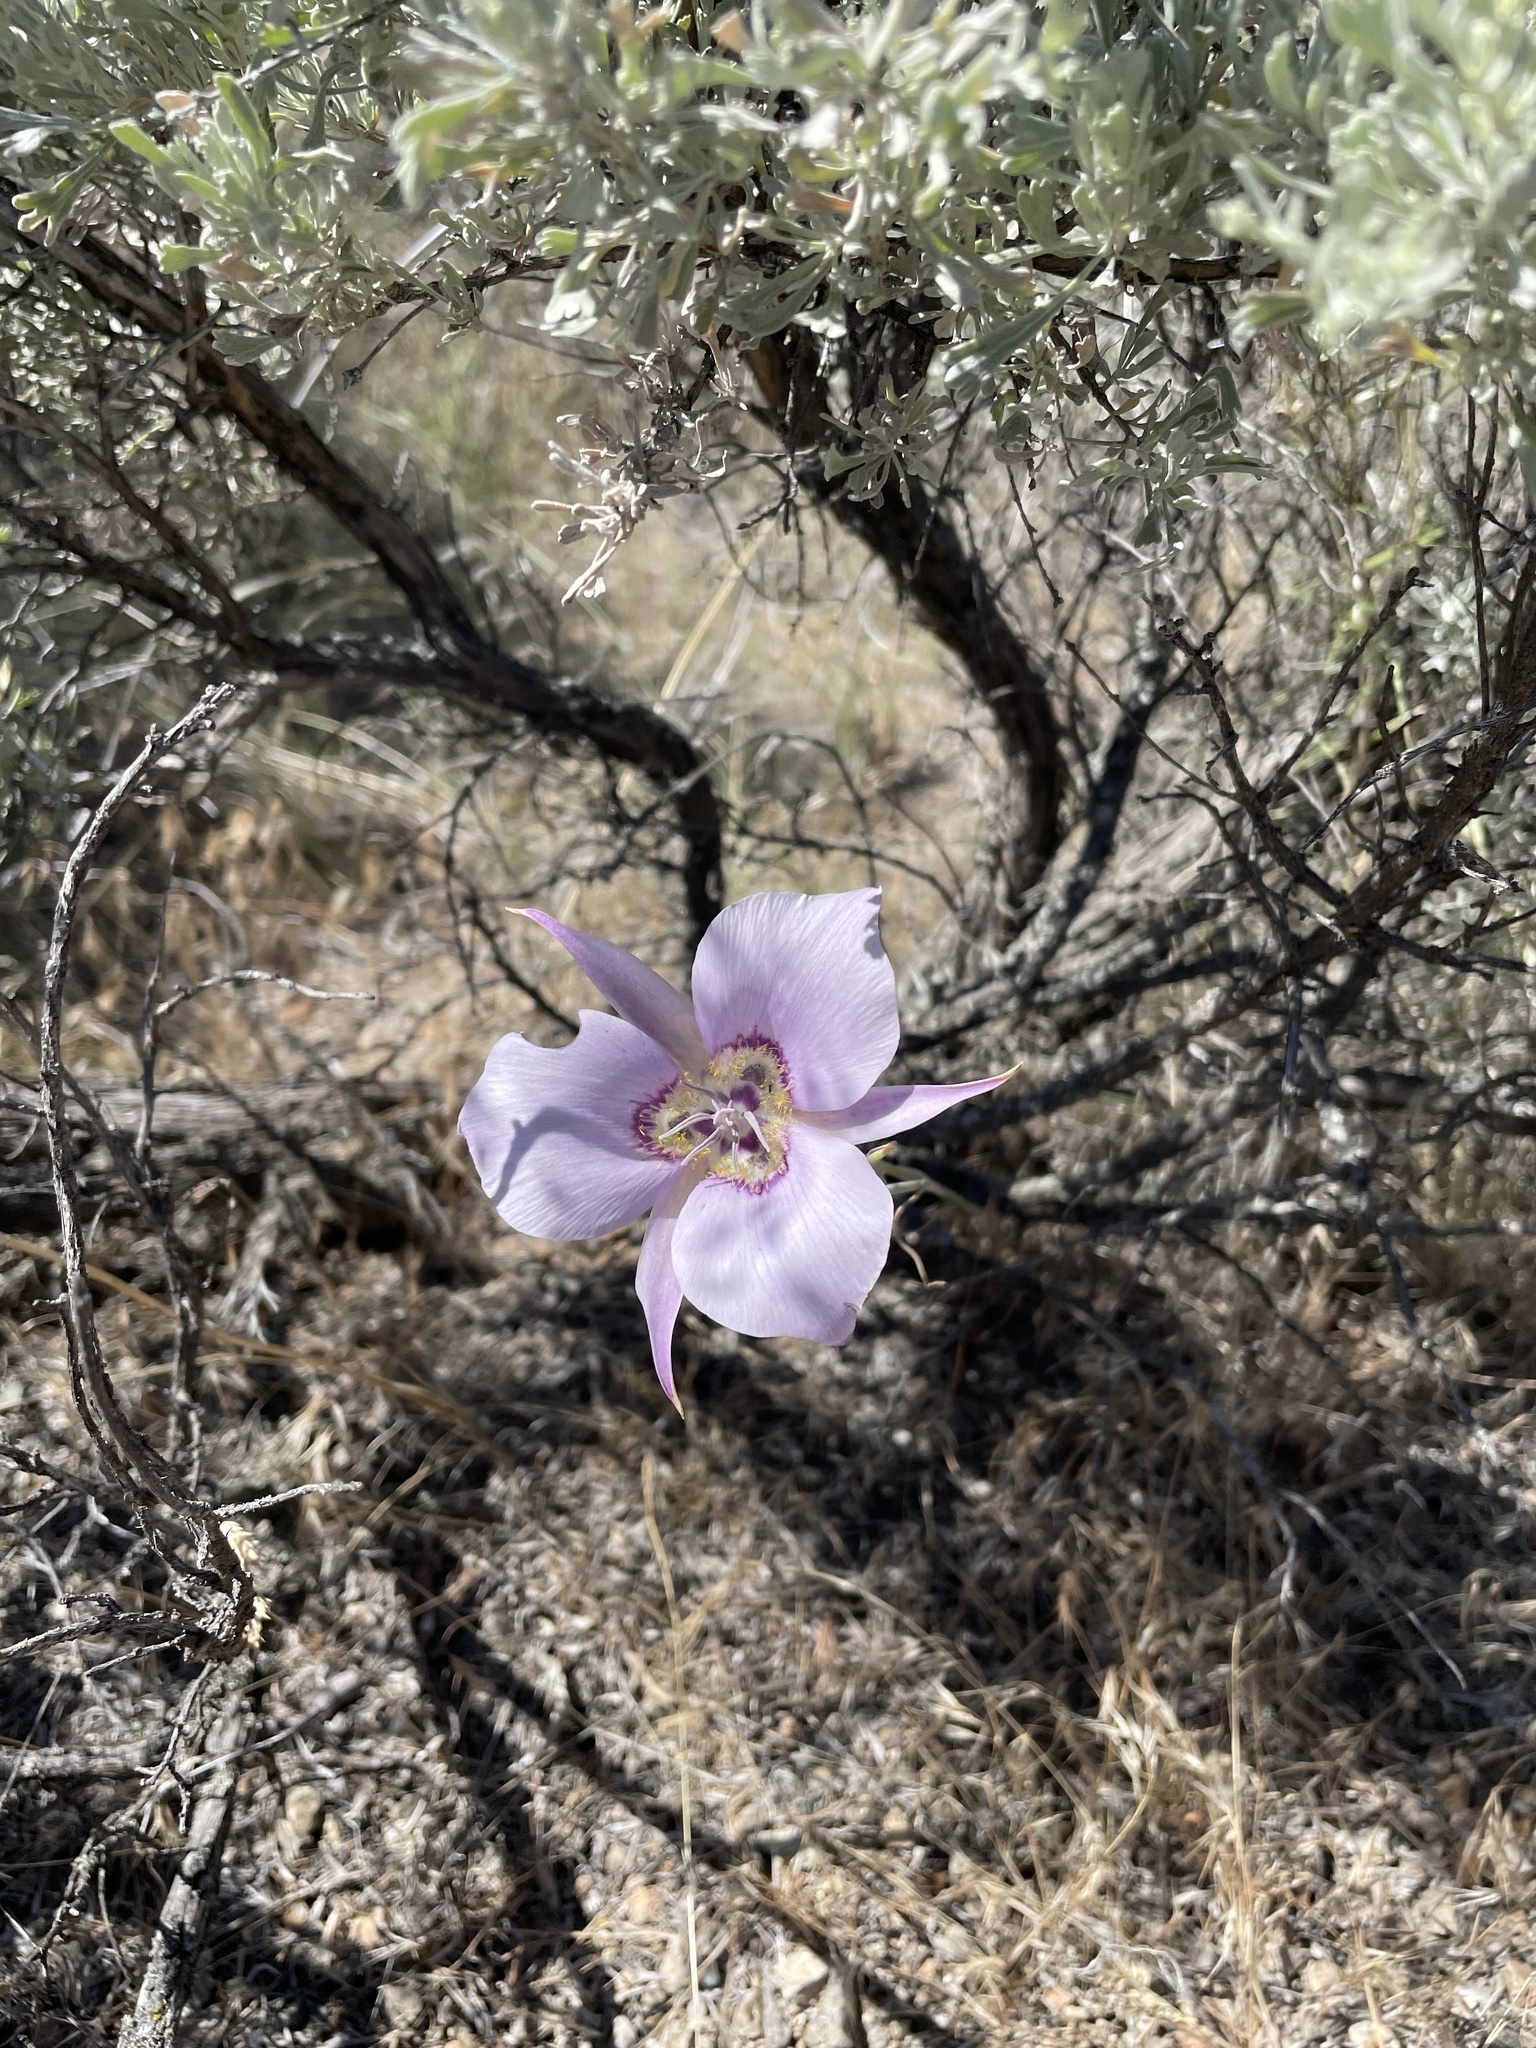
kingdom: Plantae
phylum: Tracheophyta
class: Liliopsida
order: Liliales
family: Liliaceae
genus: Calochortus
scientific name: Calochortus macrocarpus
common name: Green-band mariposa lily
